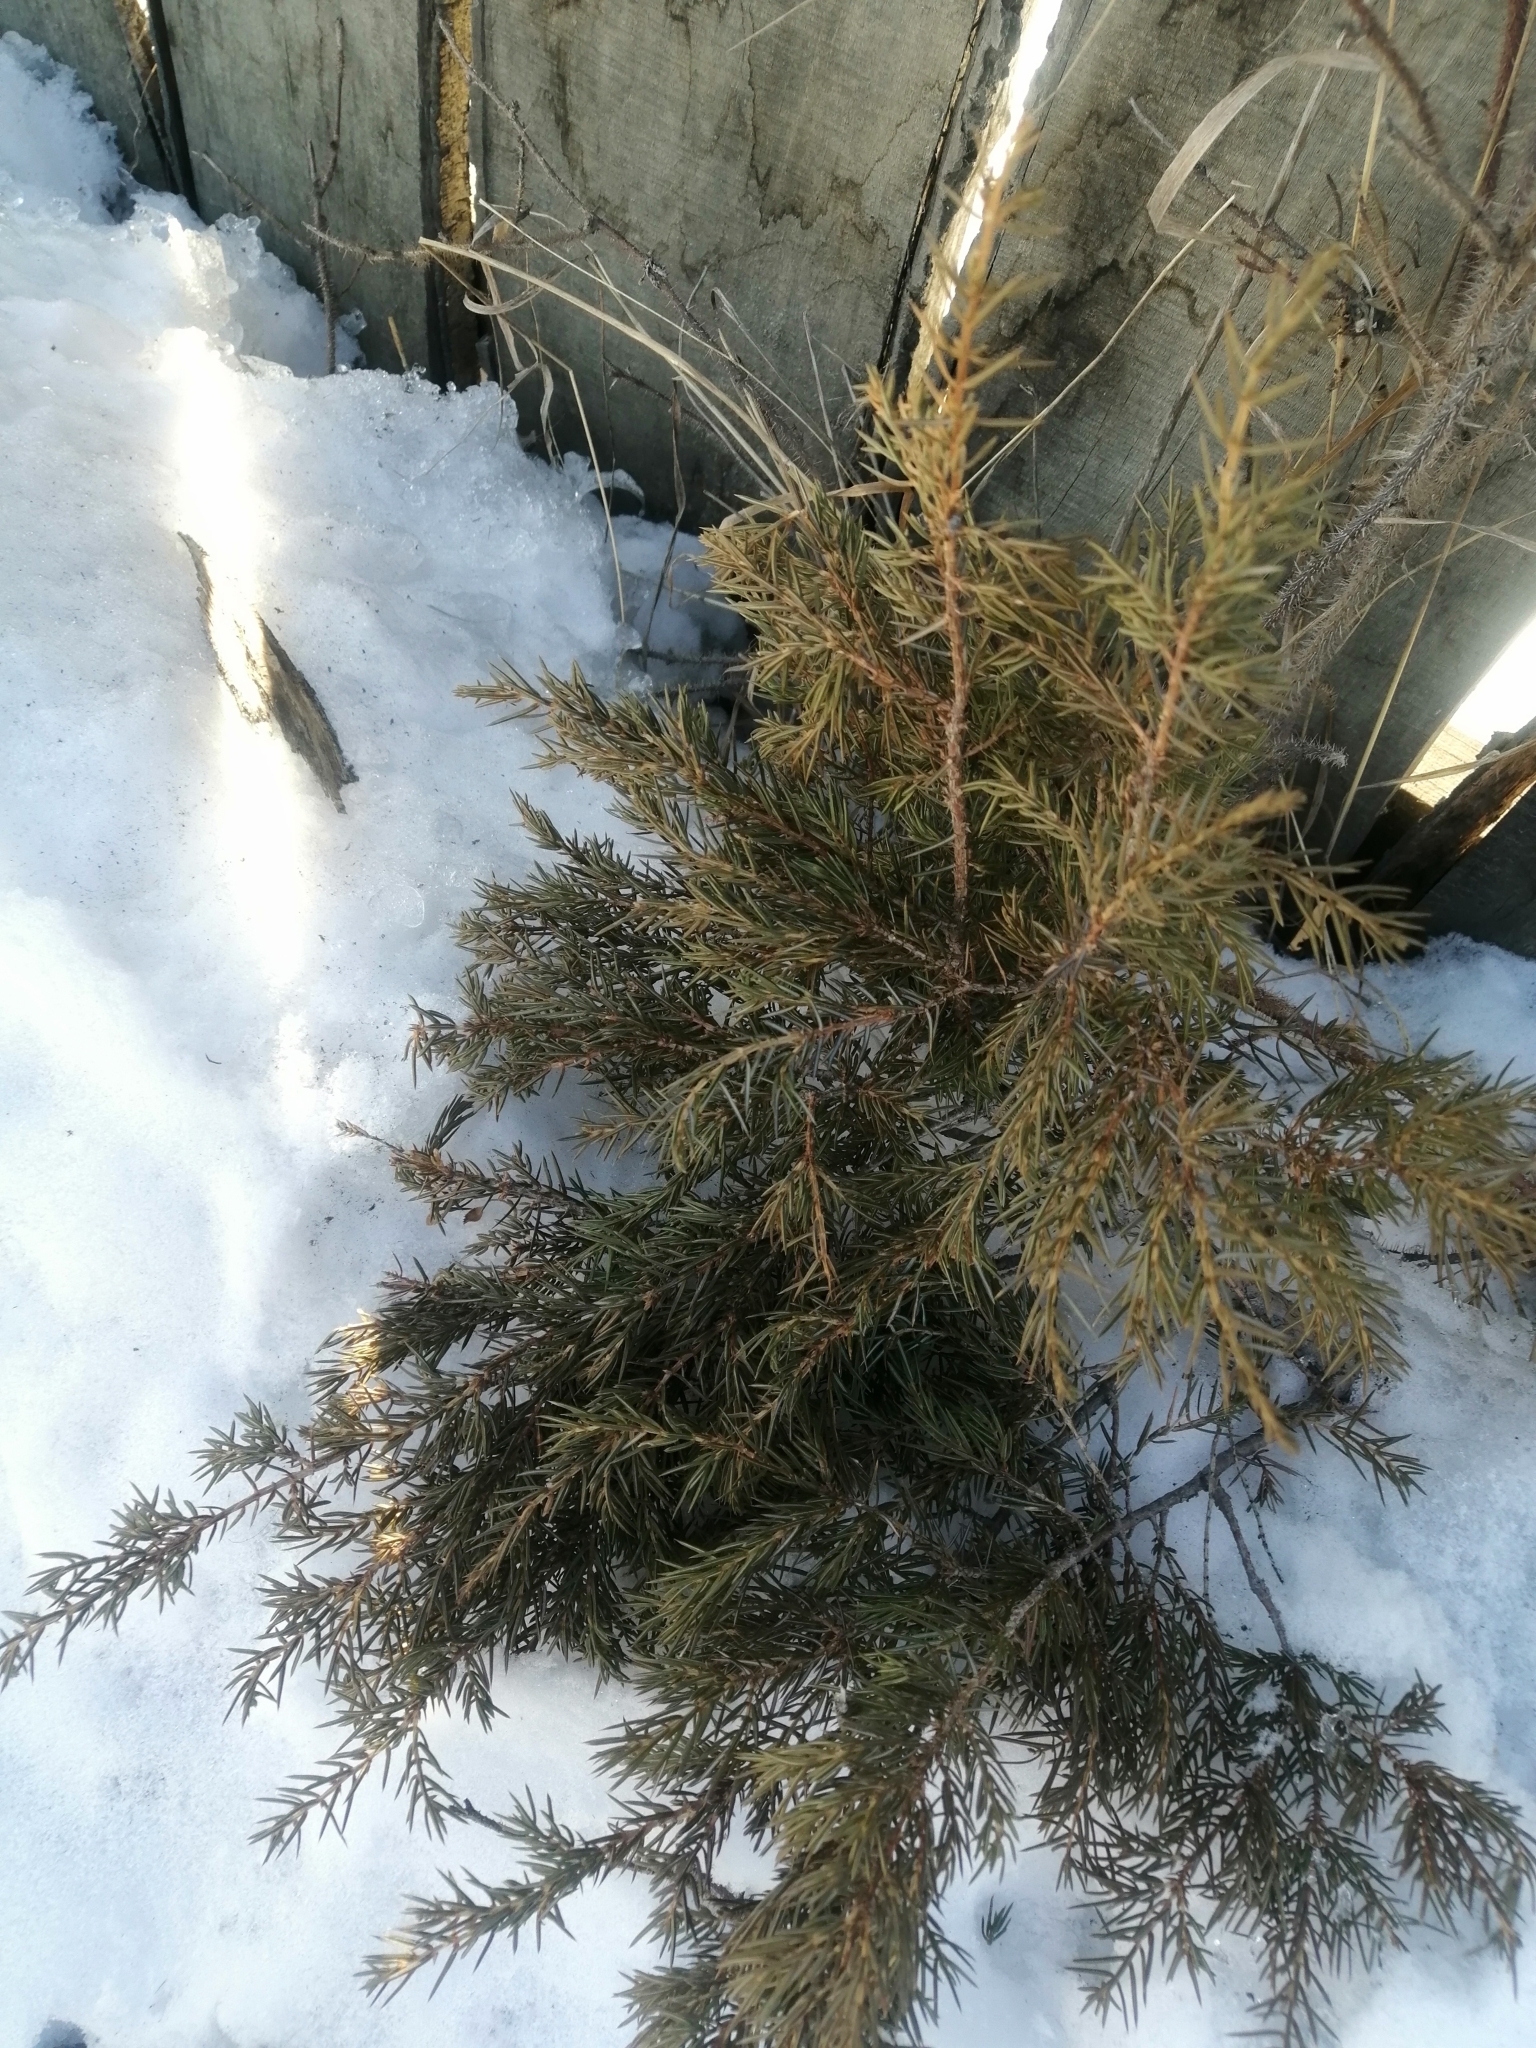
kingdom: Plantae
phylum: Tracheophyta
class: Pinopsida
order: Pinales
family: Cupressaceae
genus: Juniperus
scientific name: Juniperus communis
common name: Common juniper
